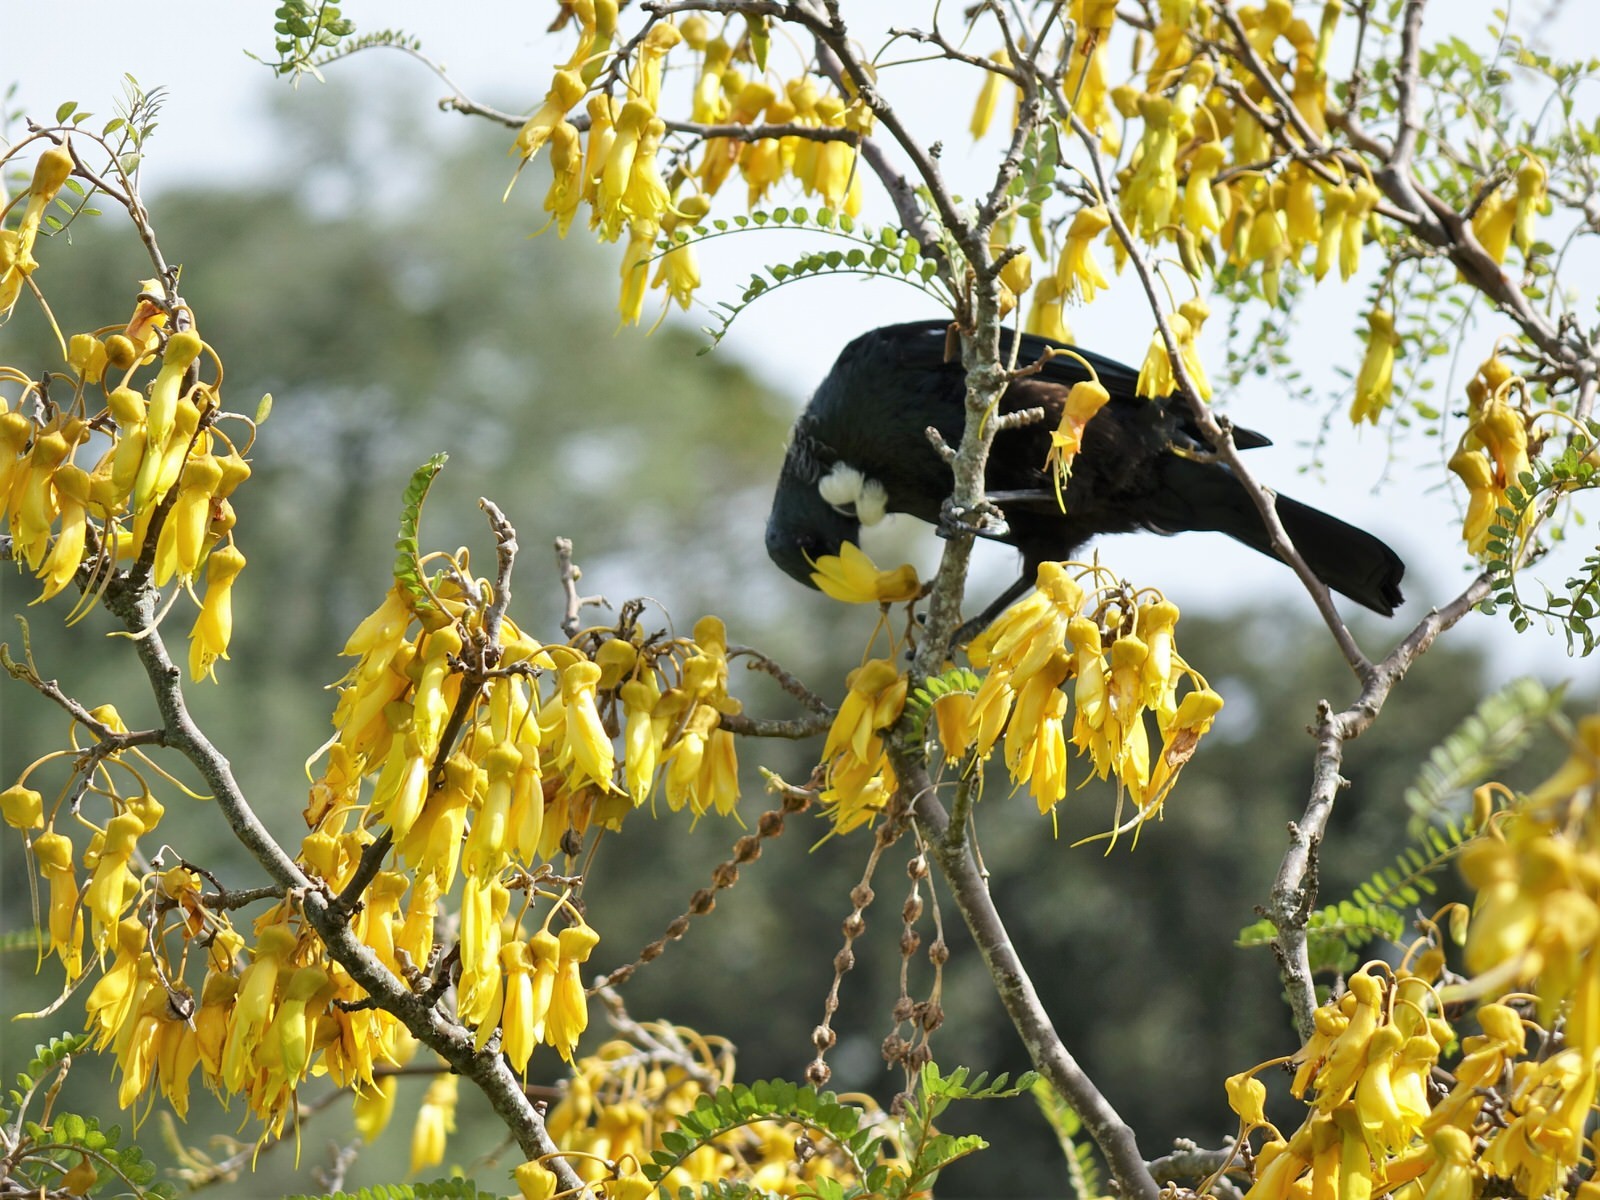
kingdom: Animalia
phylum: Chordata
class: Aves
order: Passeriformes
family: Meliphagidae
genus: Prosthemadera
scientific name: Prosthemadera novaeseelandiae
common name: Tui
